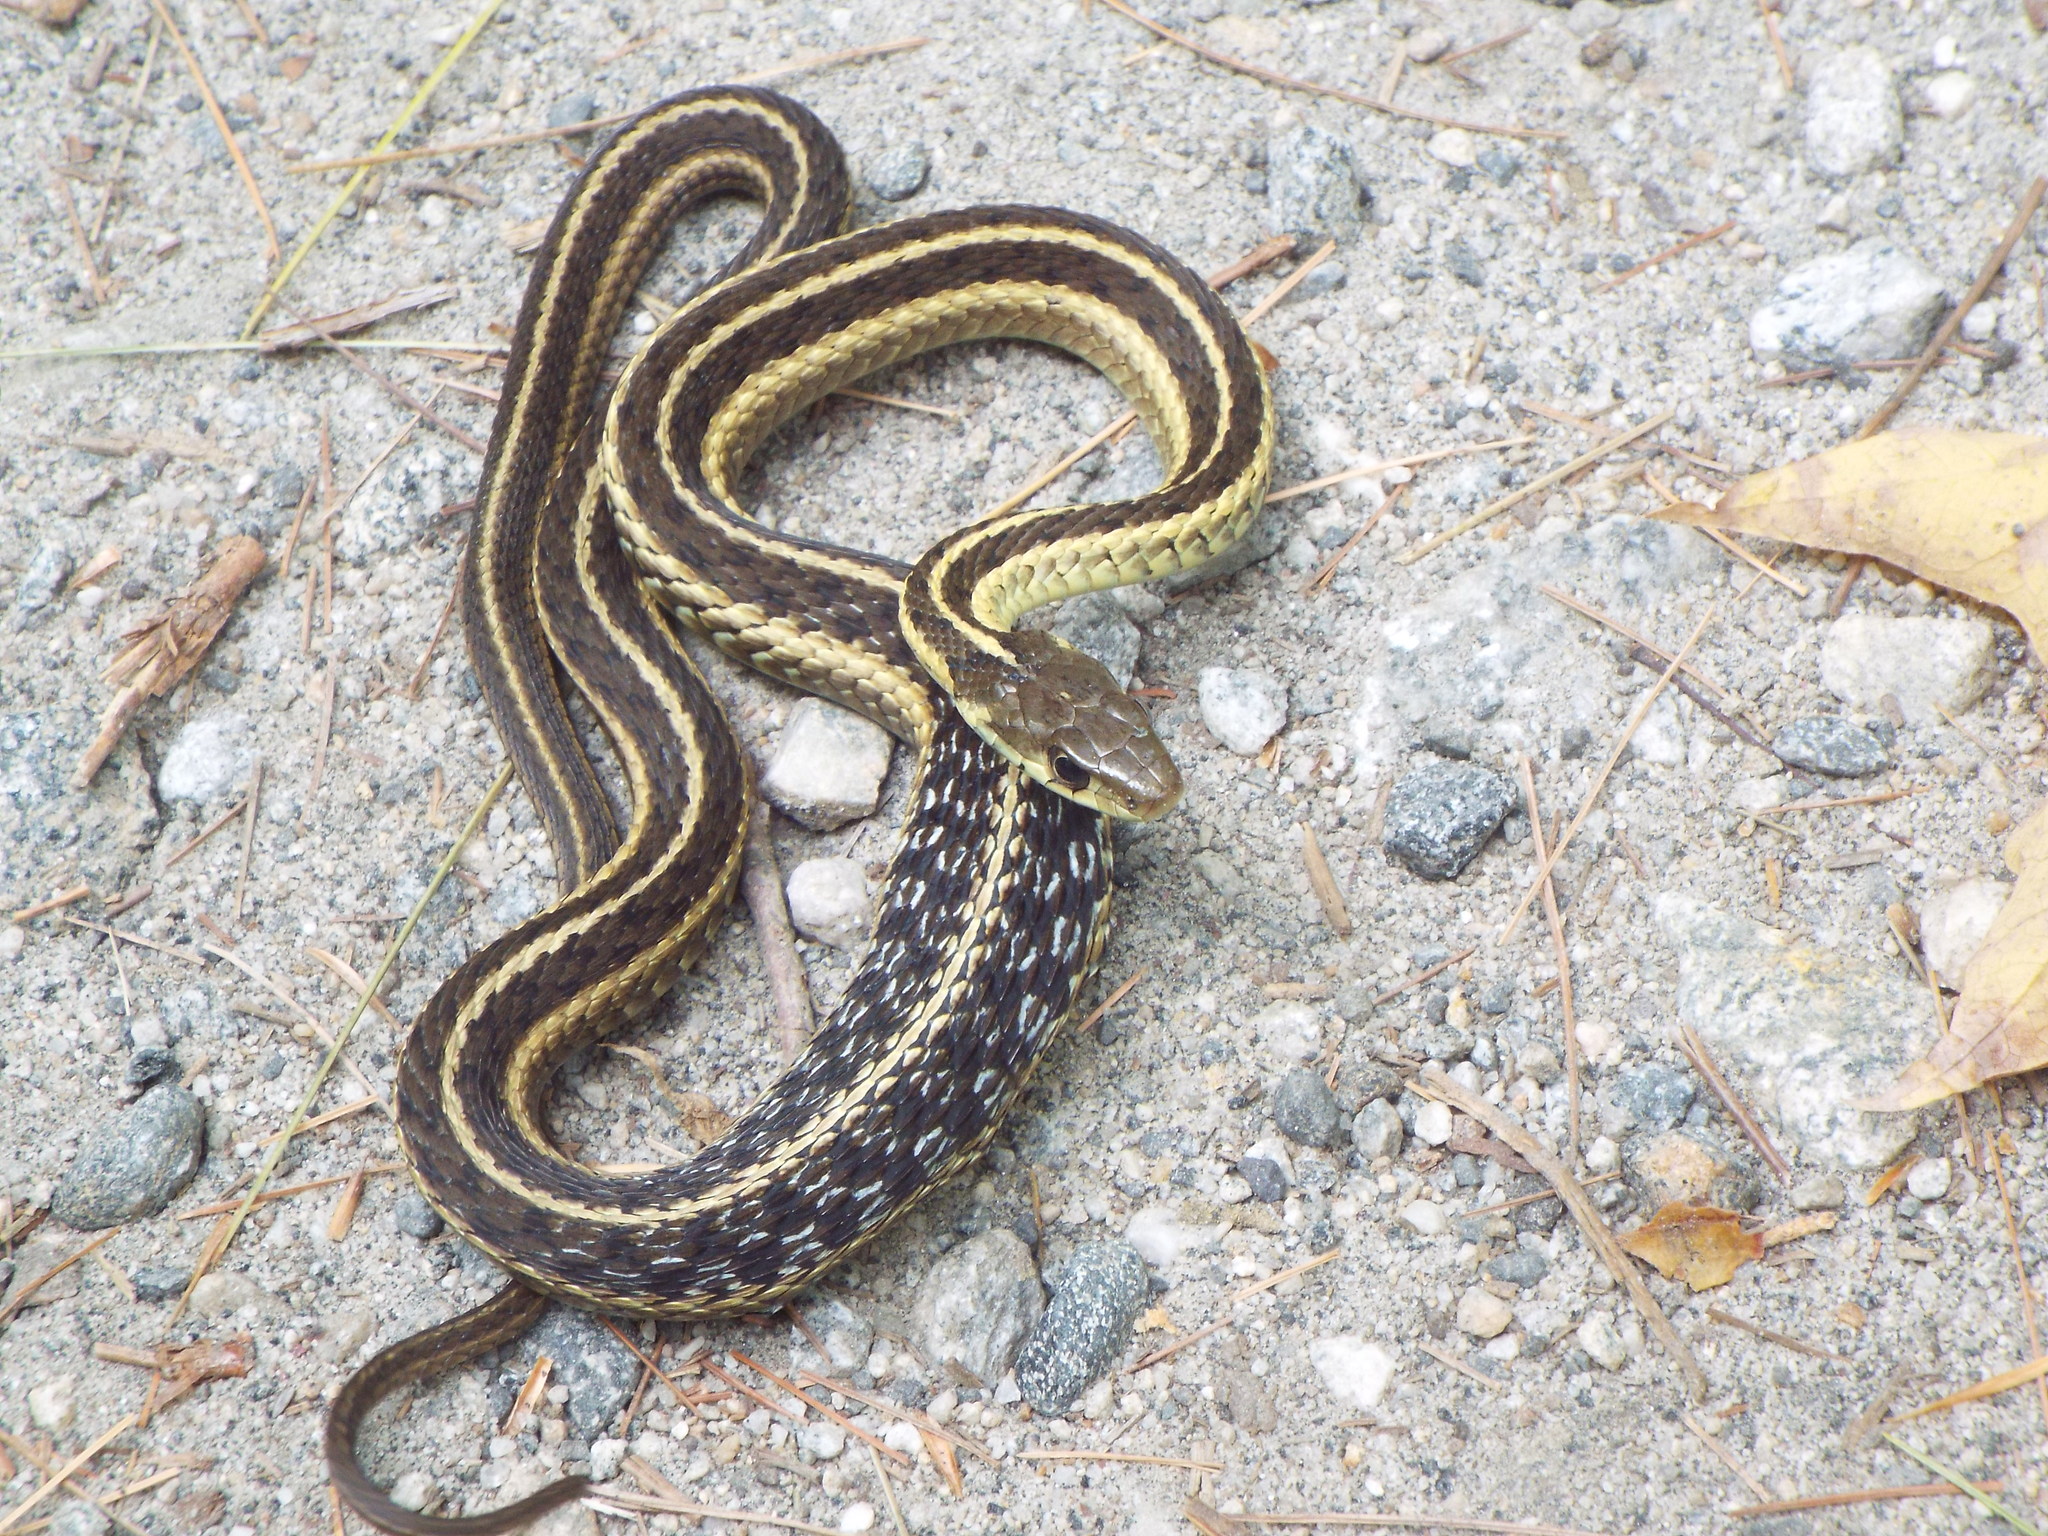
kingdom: Animalia
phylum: Chordata
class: Squamata
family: Colubridae
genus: Thamnophis
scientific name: Thamnophis sirtalis
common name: Common garter snake
